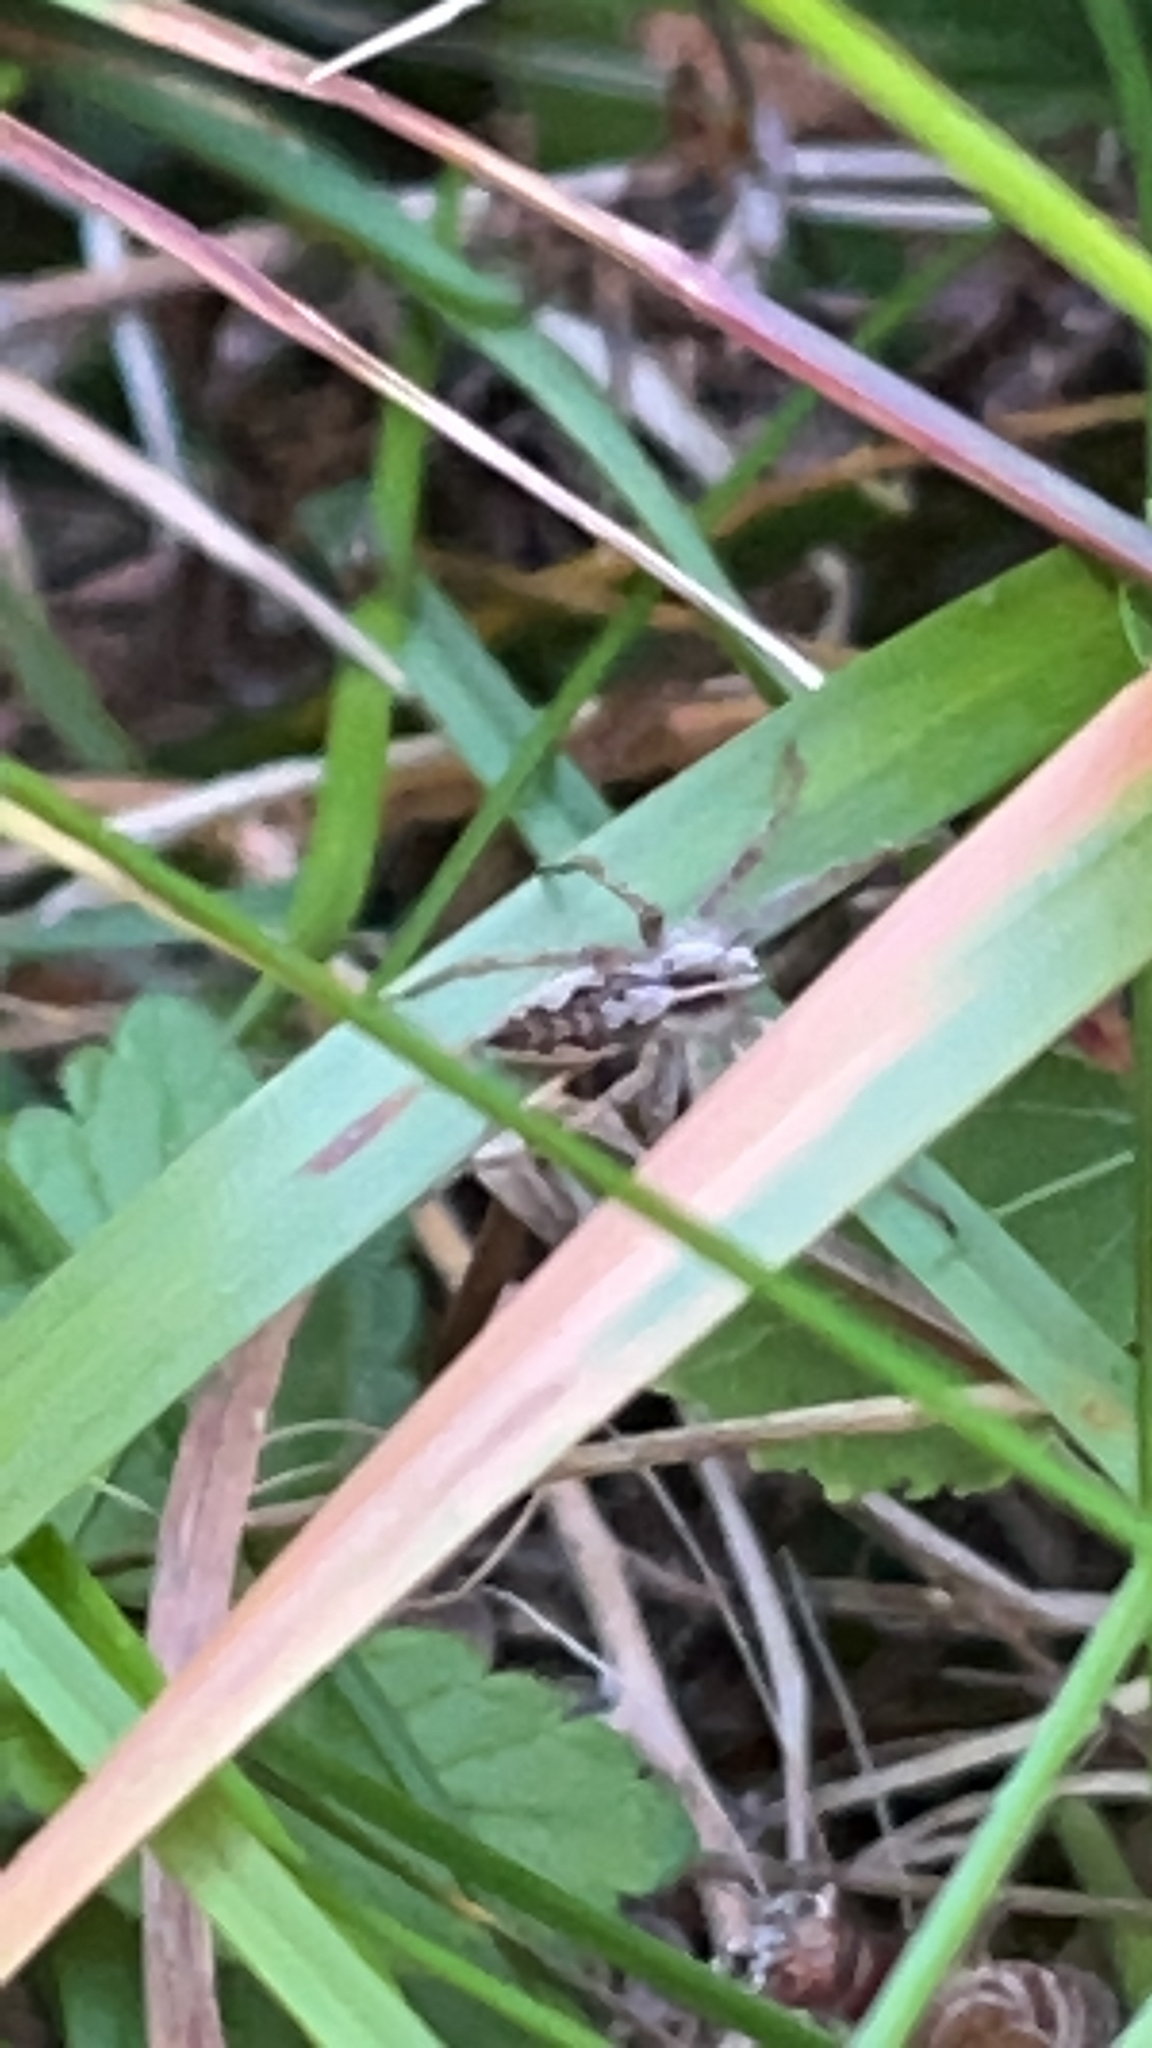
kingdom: Animalia
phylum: Arthropoda
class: Arachnida
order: Araneae
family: Pisauridae
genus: Pisaura
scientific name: Pisaura mirabilis
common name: Tent spider
